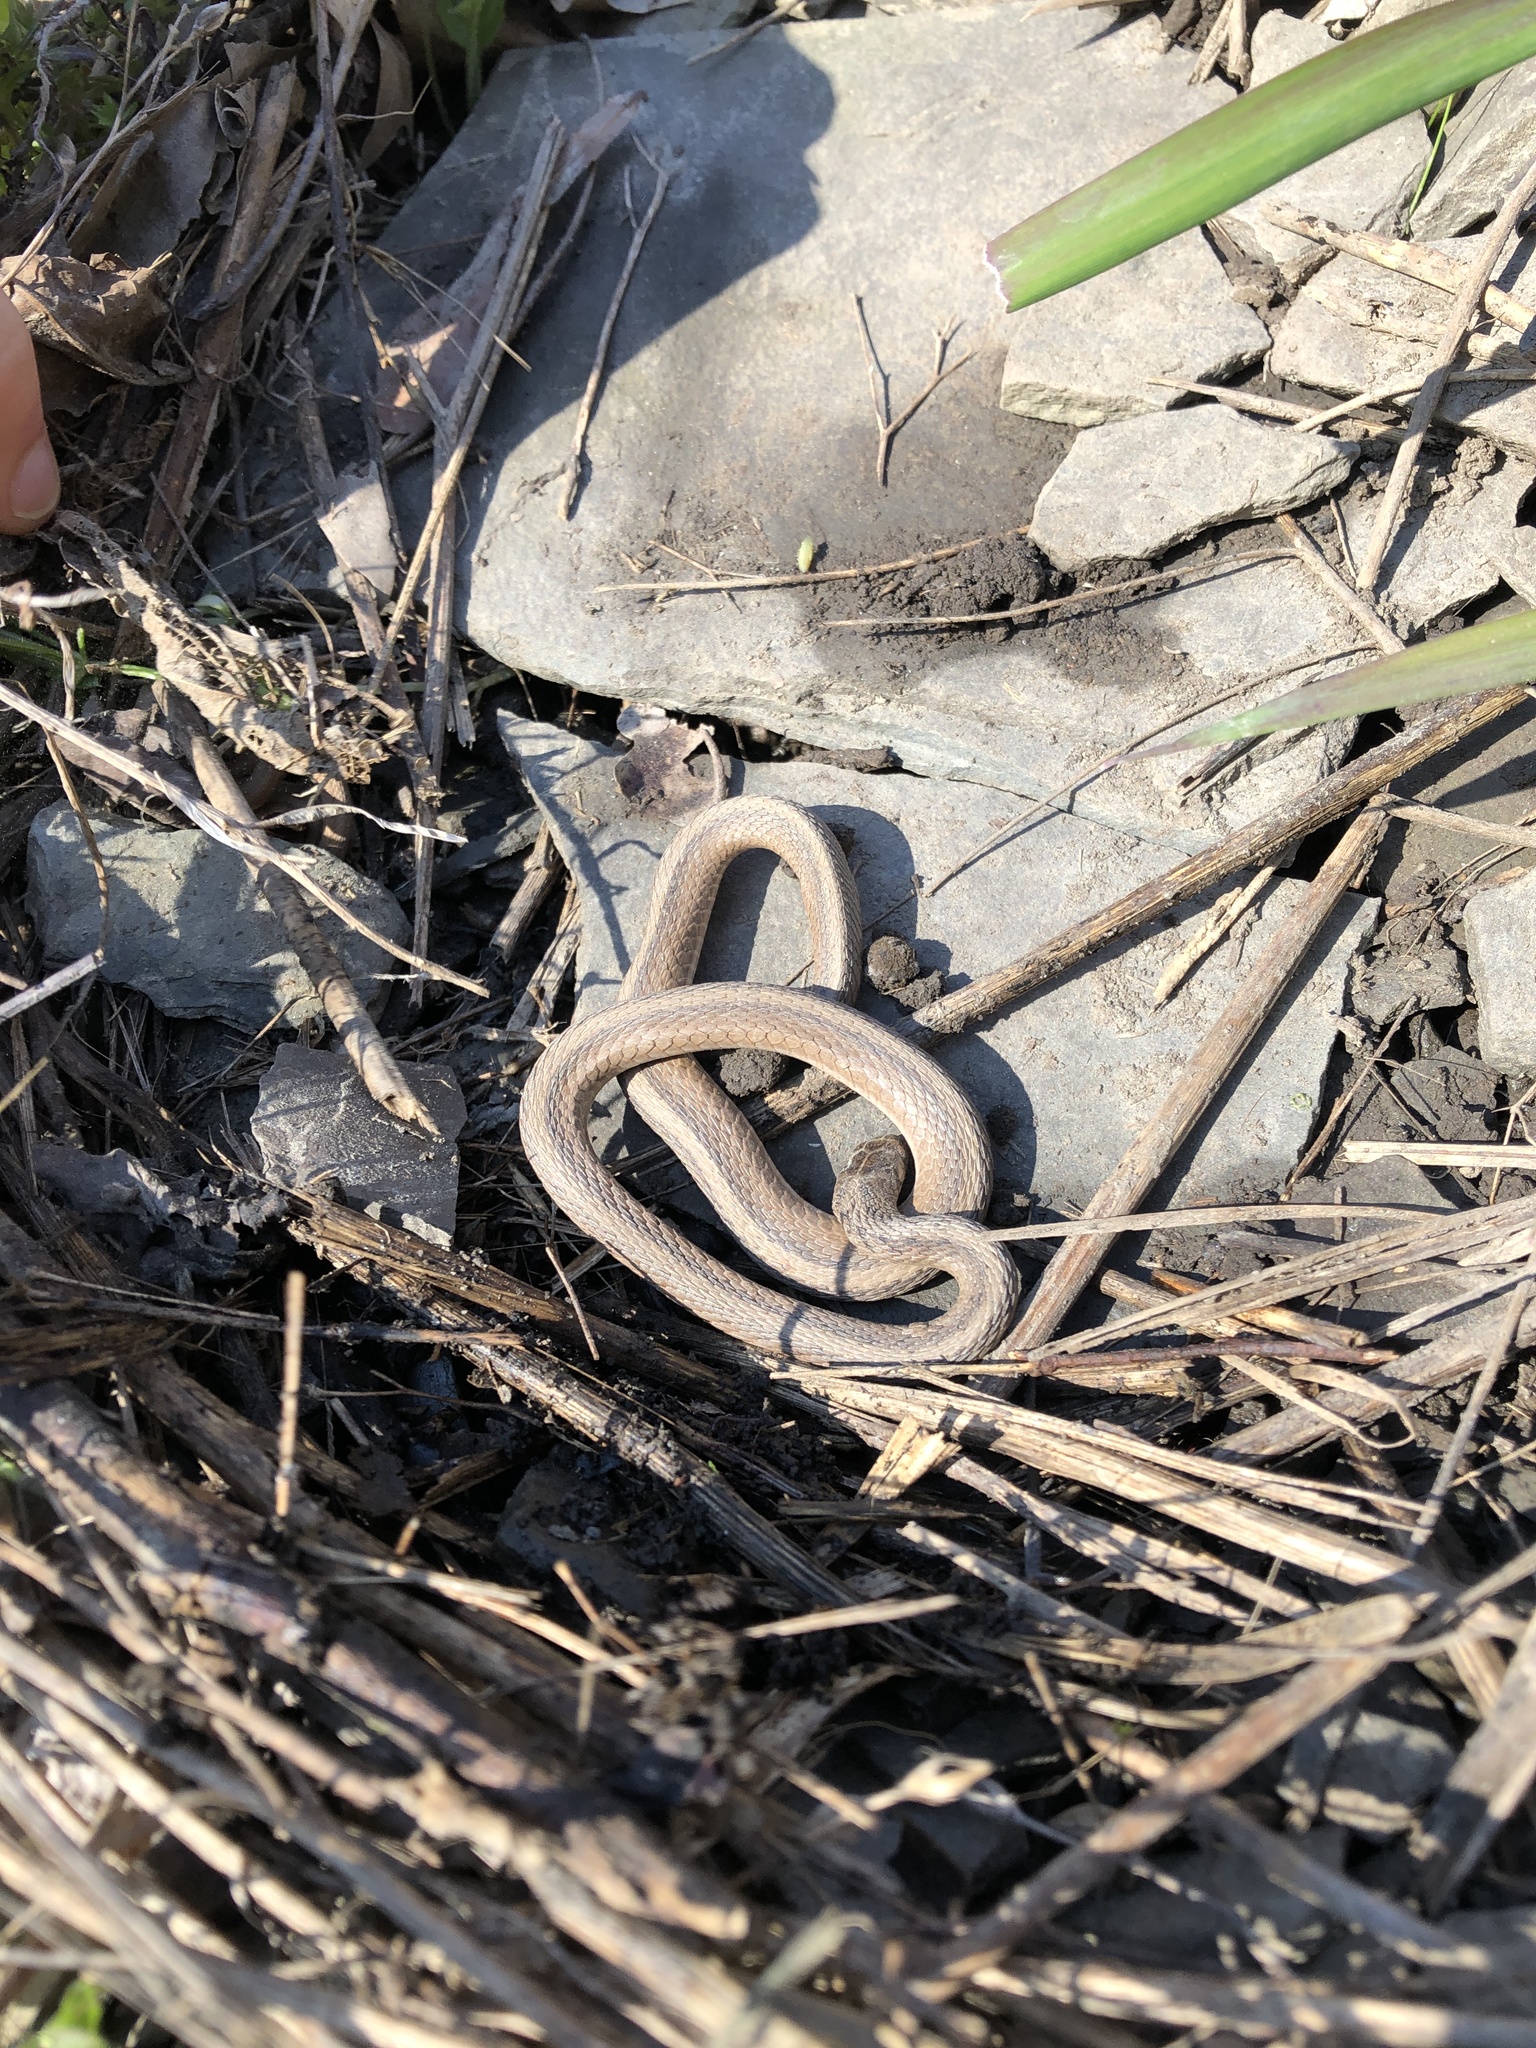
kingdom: Animalia
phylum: Chordata
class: Squamata
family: Colubridae
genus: Storeria
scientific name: Storeria dekayi
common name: (dekay’s) brown snake
